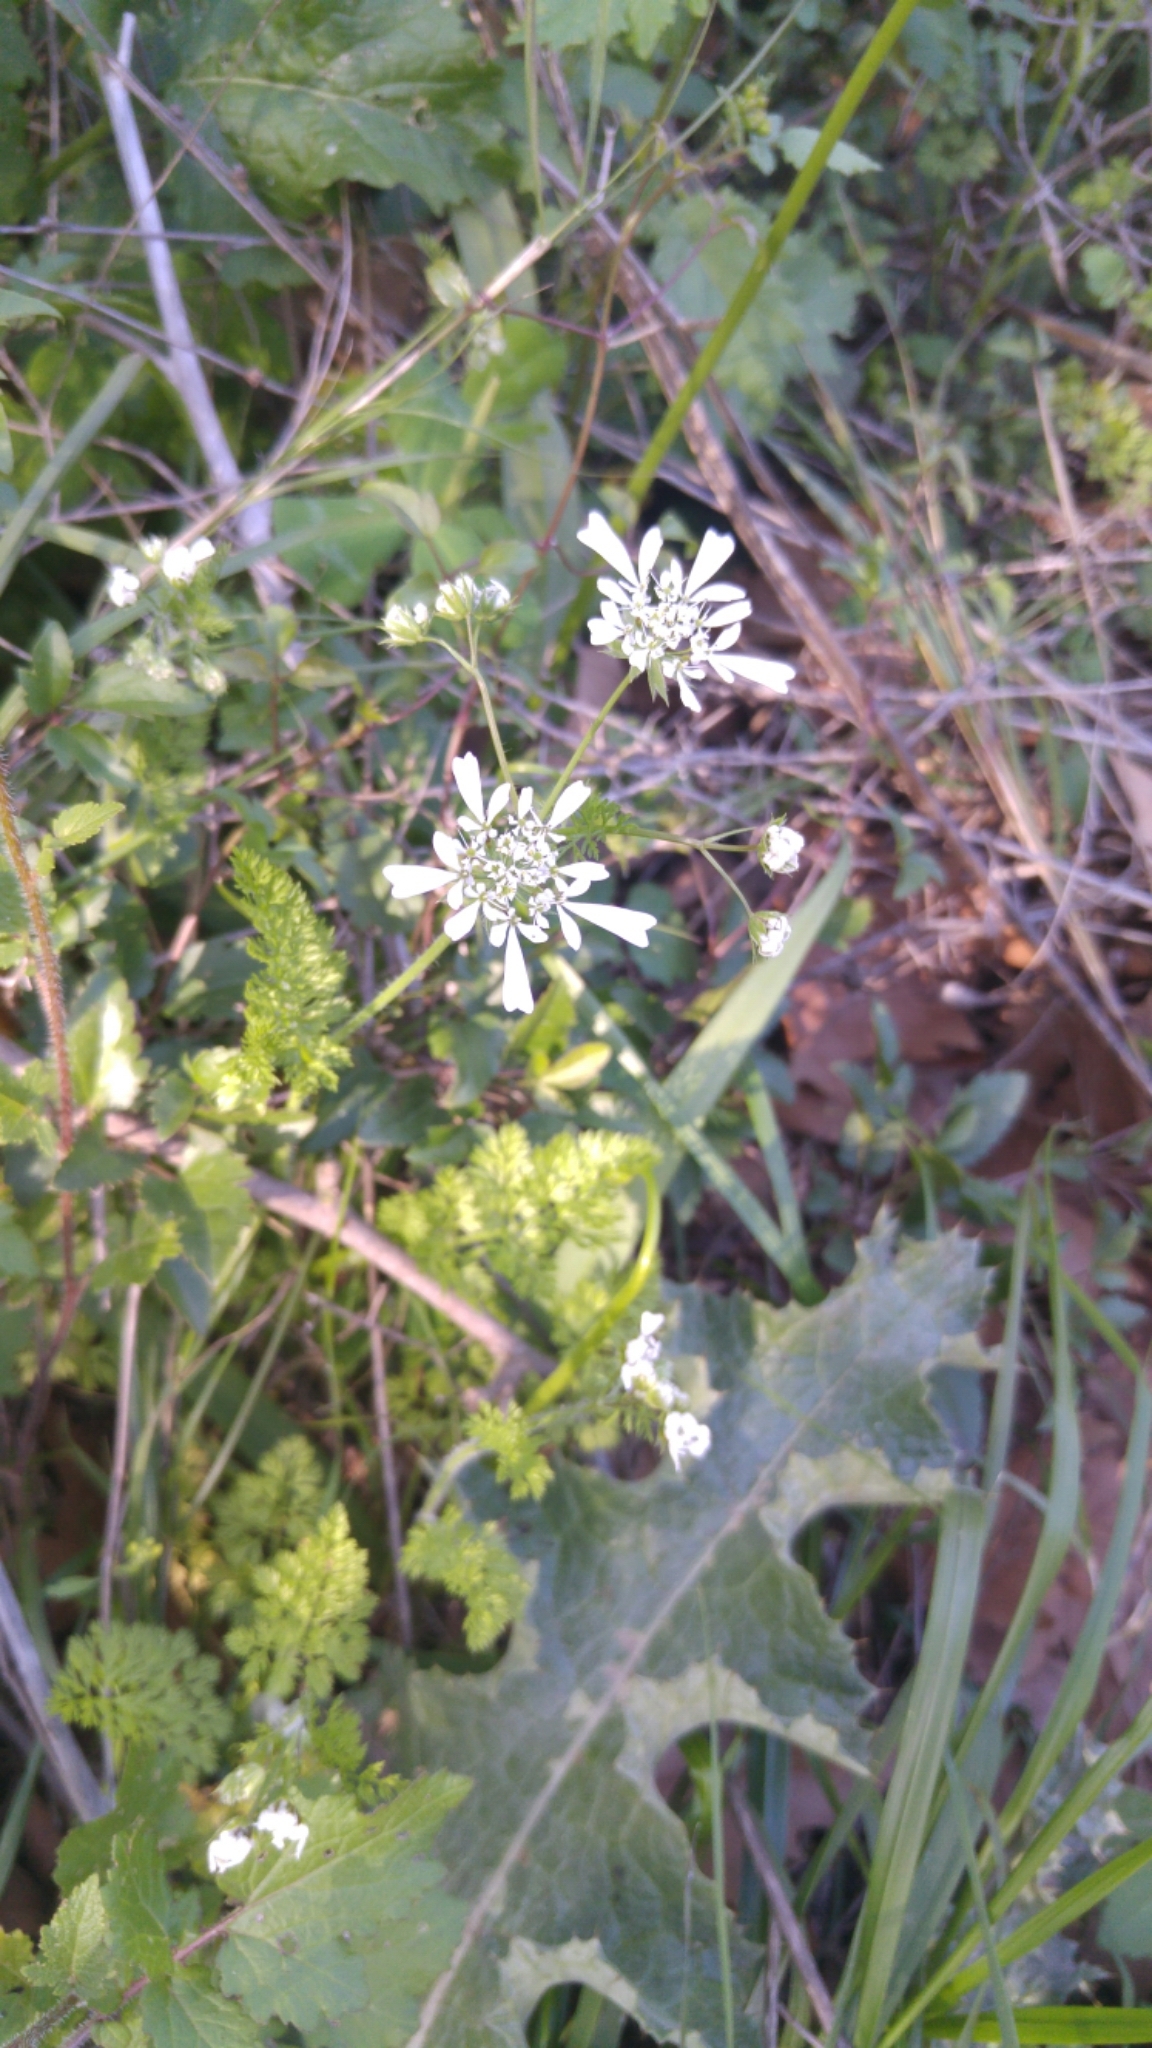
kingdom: Plantae
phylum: Tracheophyta
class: Magnoliopsida
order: Apiales
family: Apiaceae
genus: Scandix
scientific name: Scandix
